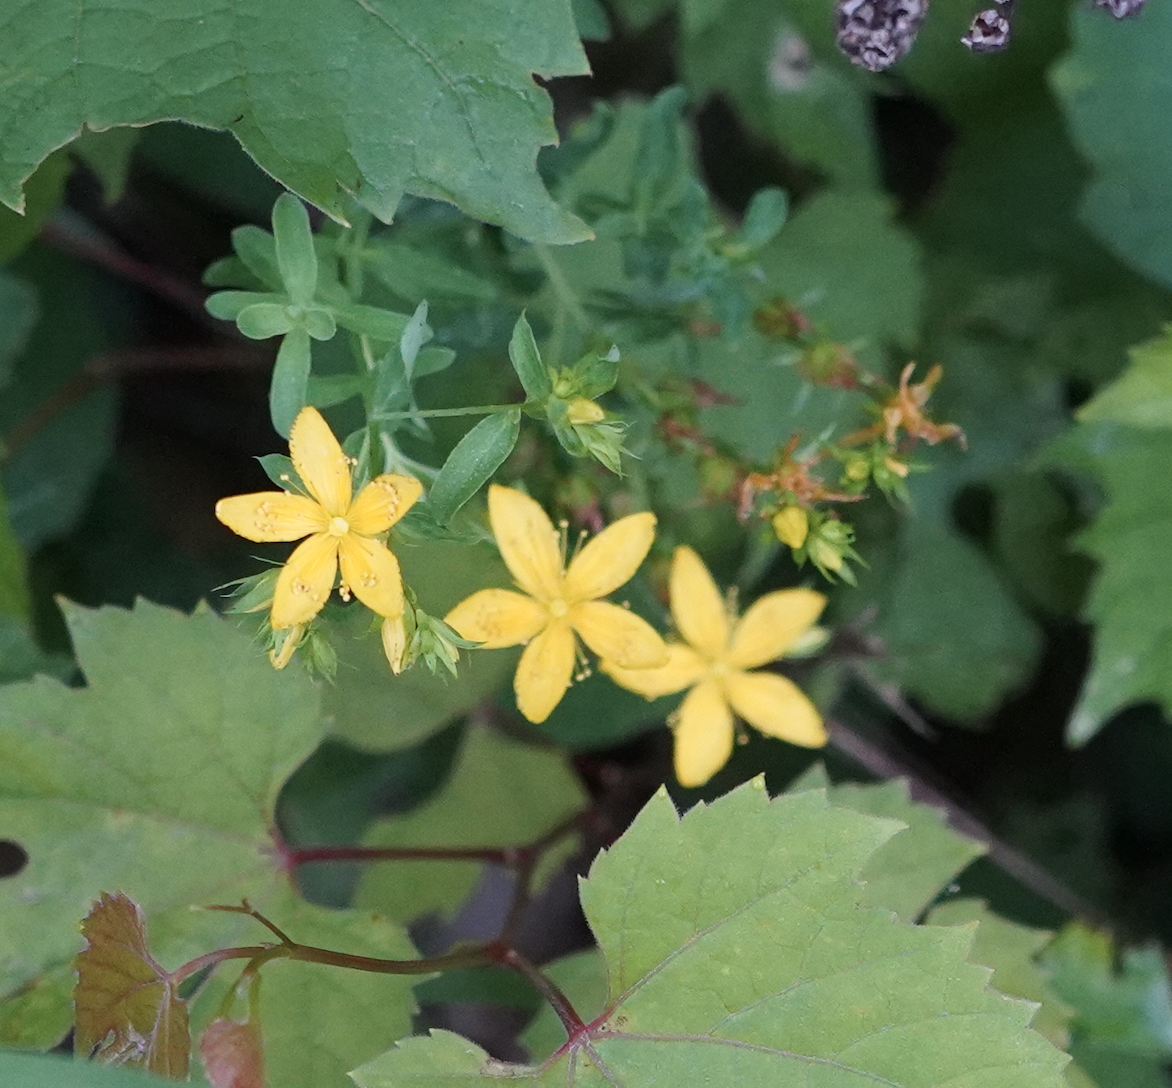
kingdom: Plantae
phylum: Tracheophyta
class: Magnoliopsida
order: Malpighiales
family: Hypericaceae
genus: Hypericum
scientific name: Hypericum perforatum
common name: Common st. johnswort
